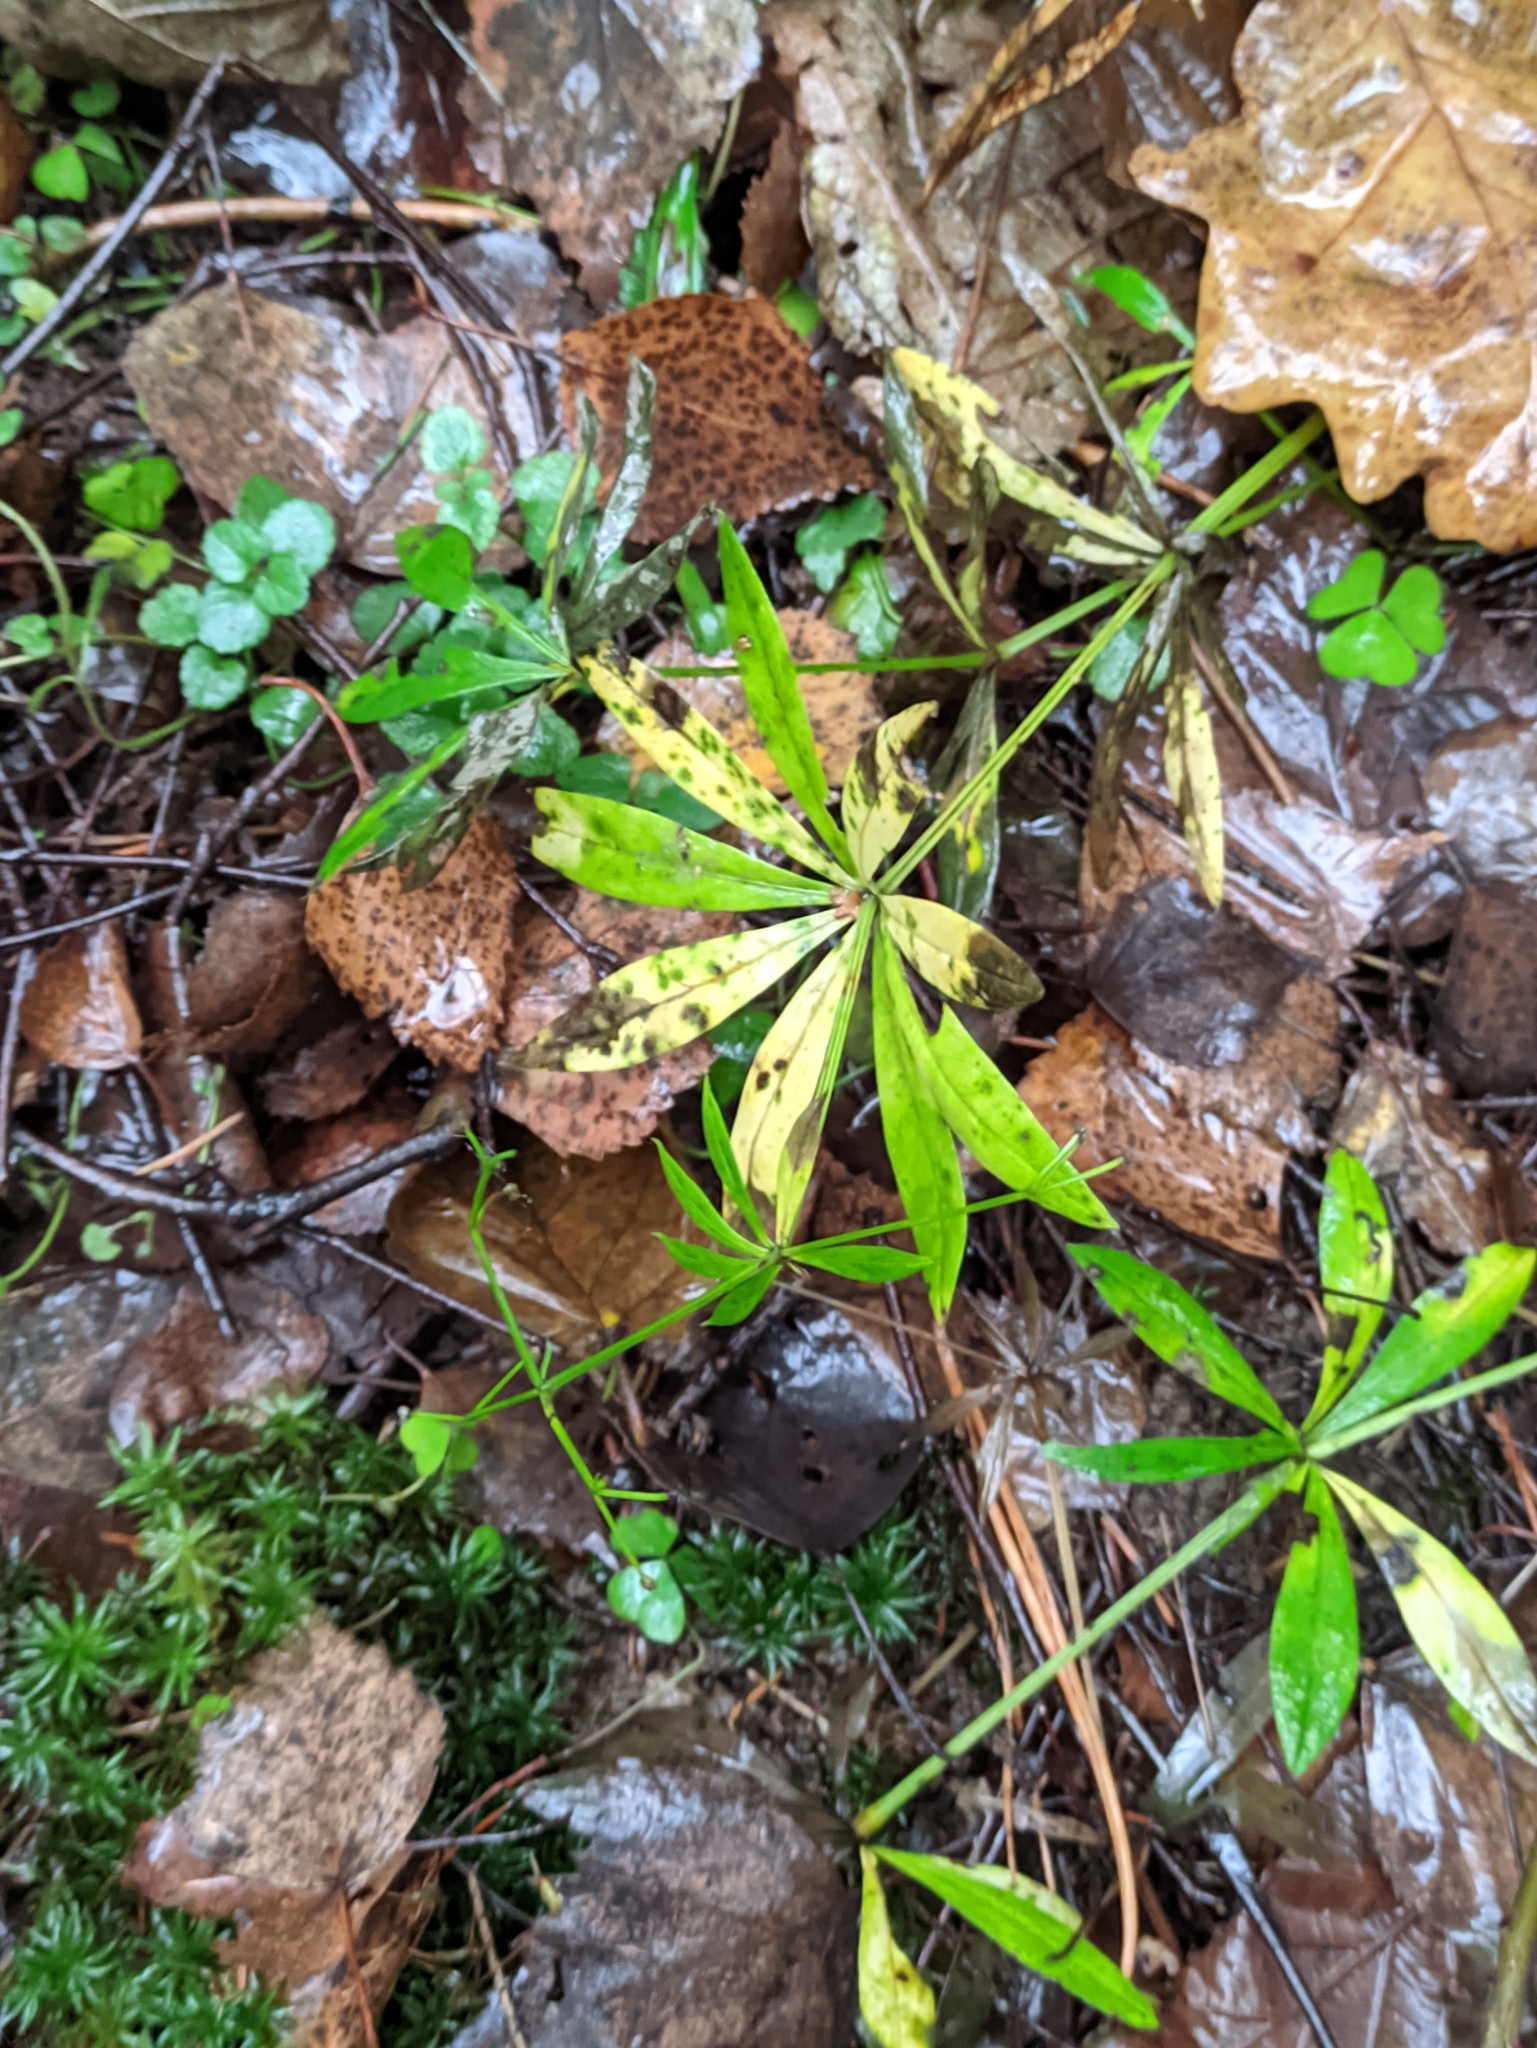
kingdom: Plantae
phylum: Tracheophyta
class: Magnoliopsida
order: Gentianales
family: Rubiaceae
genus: Galium
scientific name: Galium odoratum
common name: Sweet woodruff
